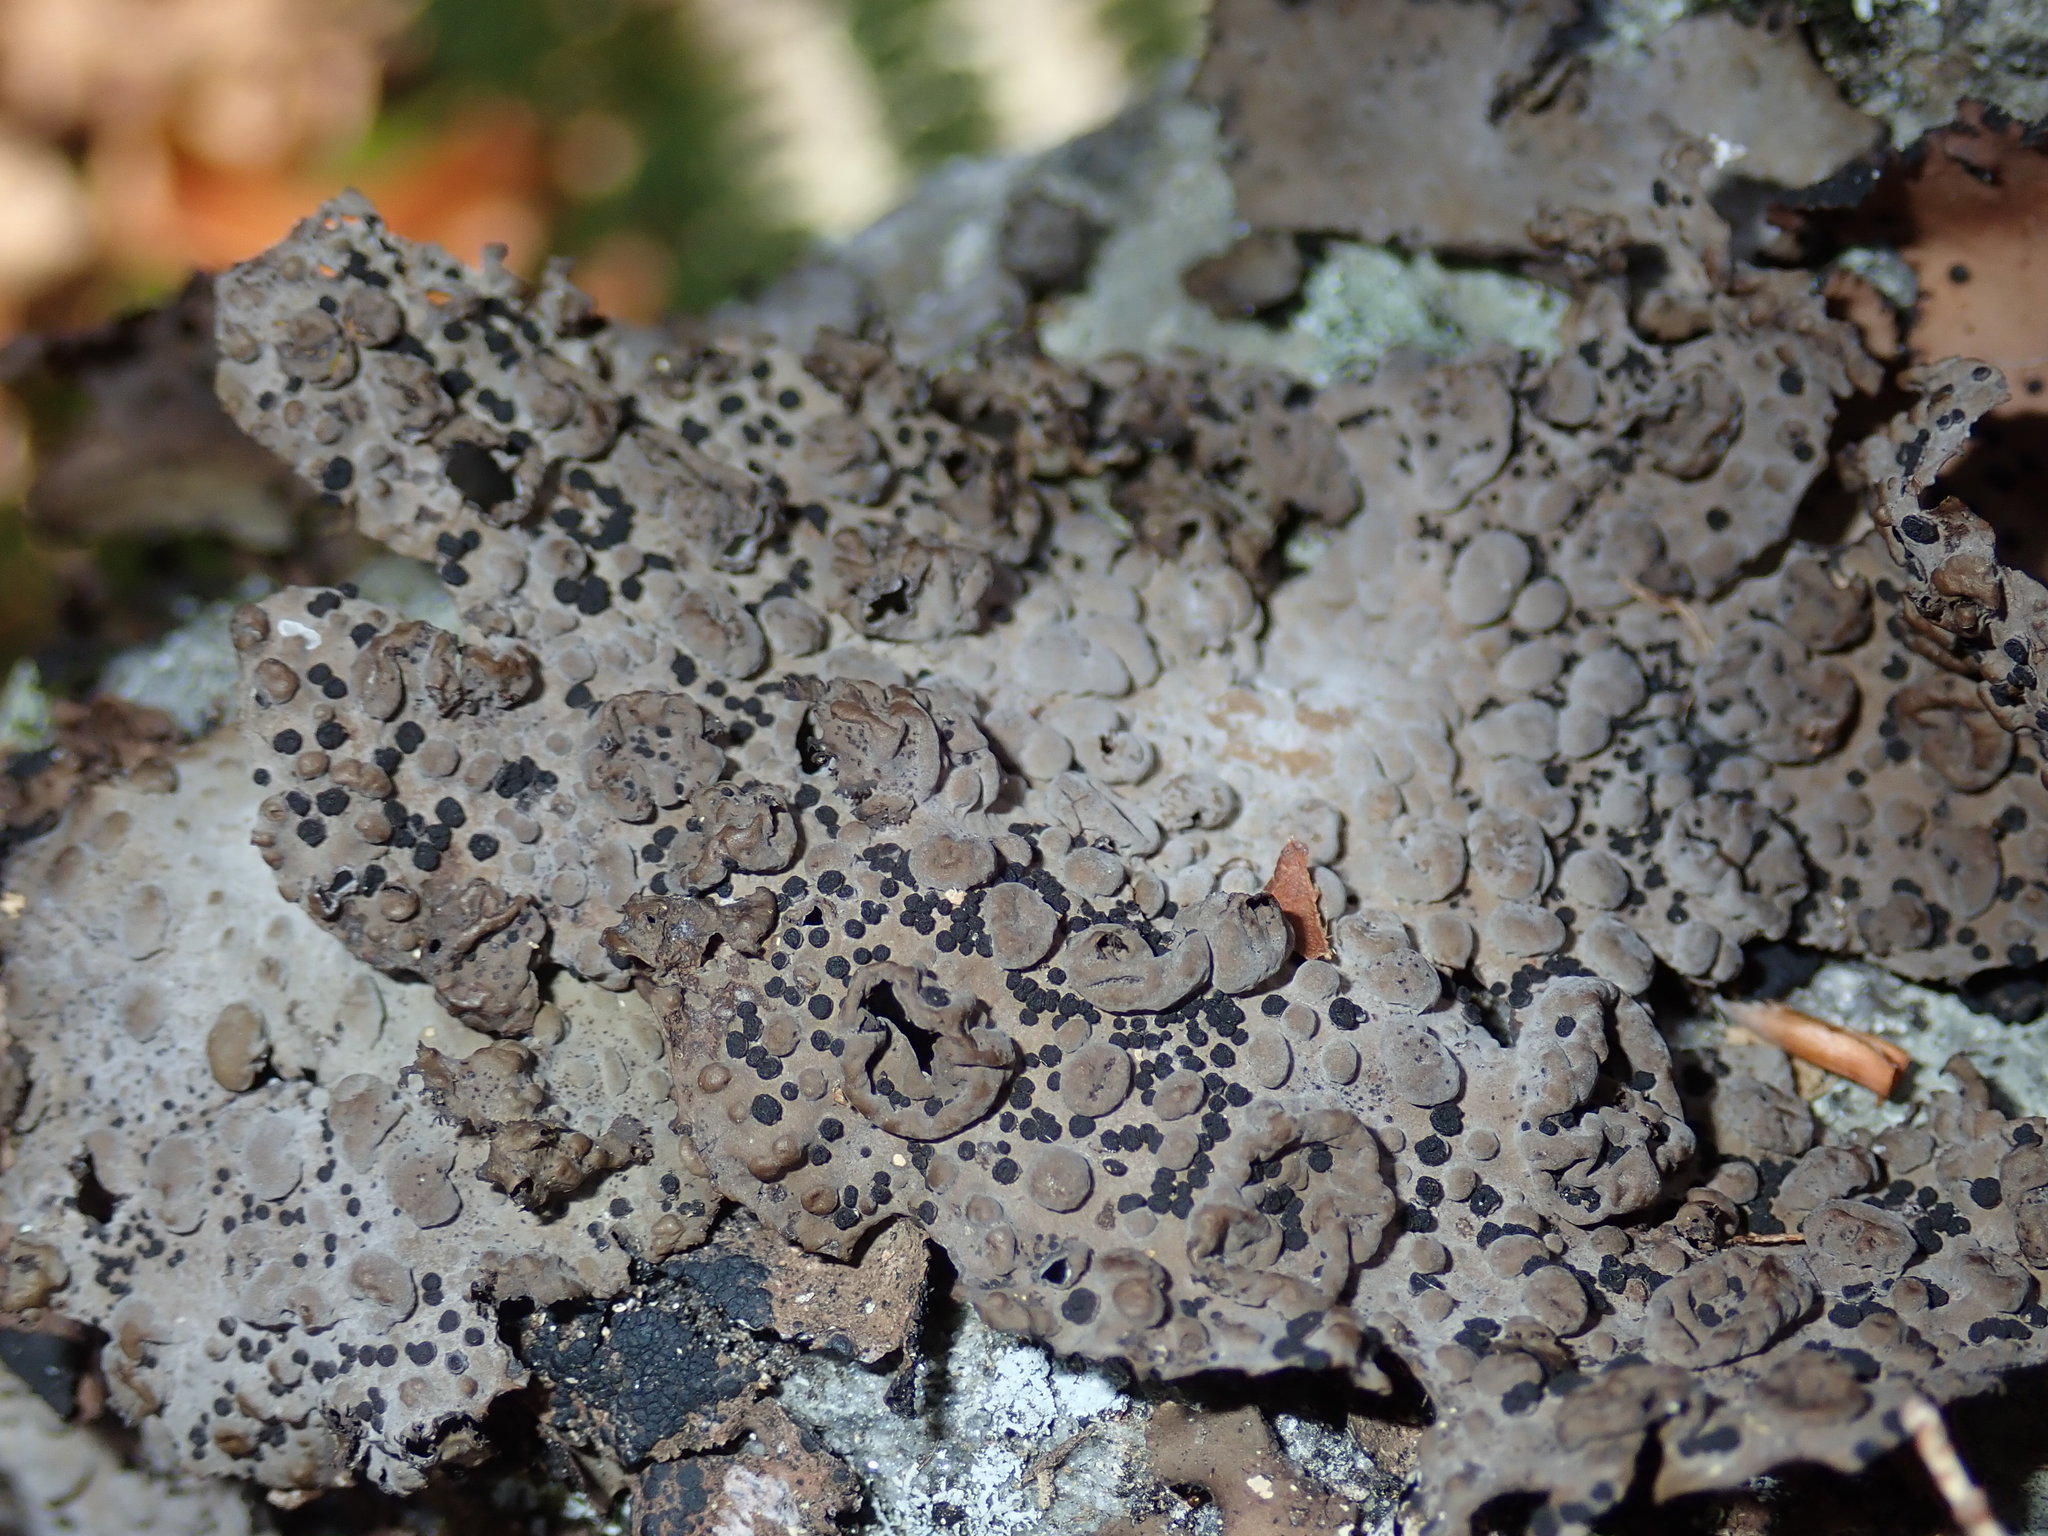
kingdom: Fungi
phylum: Ascomycota
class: Lecanoromycetes
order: Umbilicariales
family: Umbilicariaceae
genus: Lasallia
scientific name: Lasallia papulosa
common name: Common toadskin lichen
